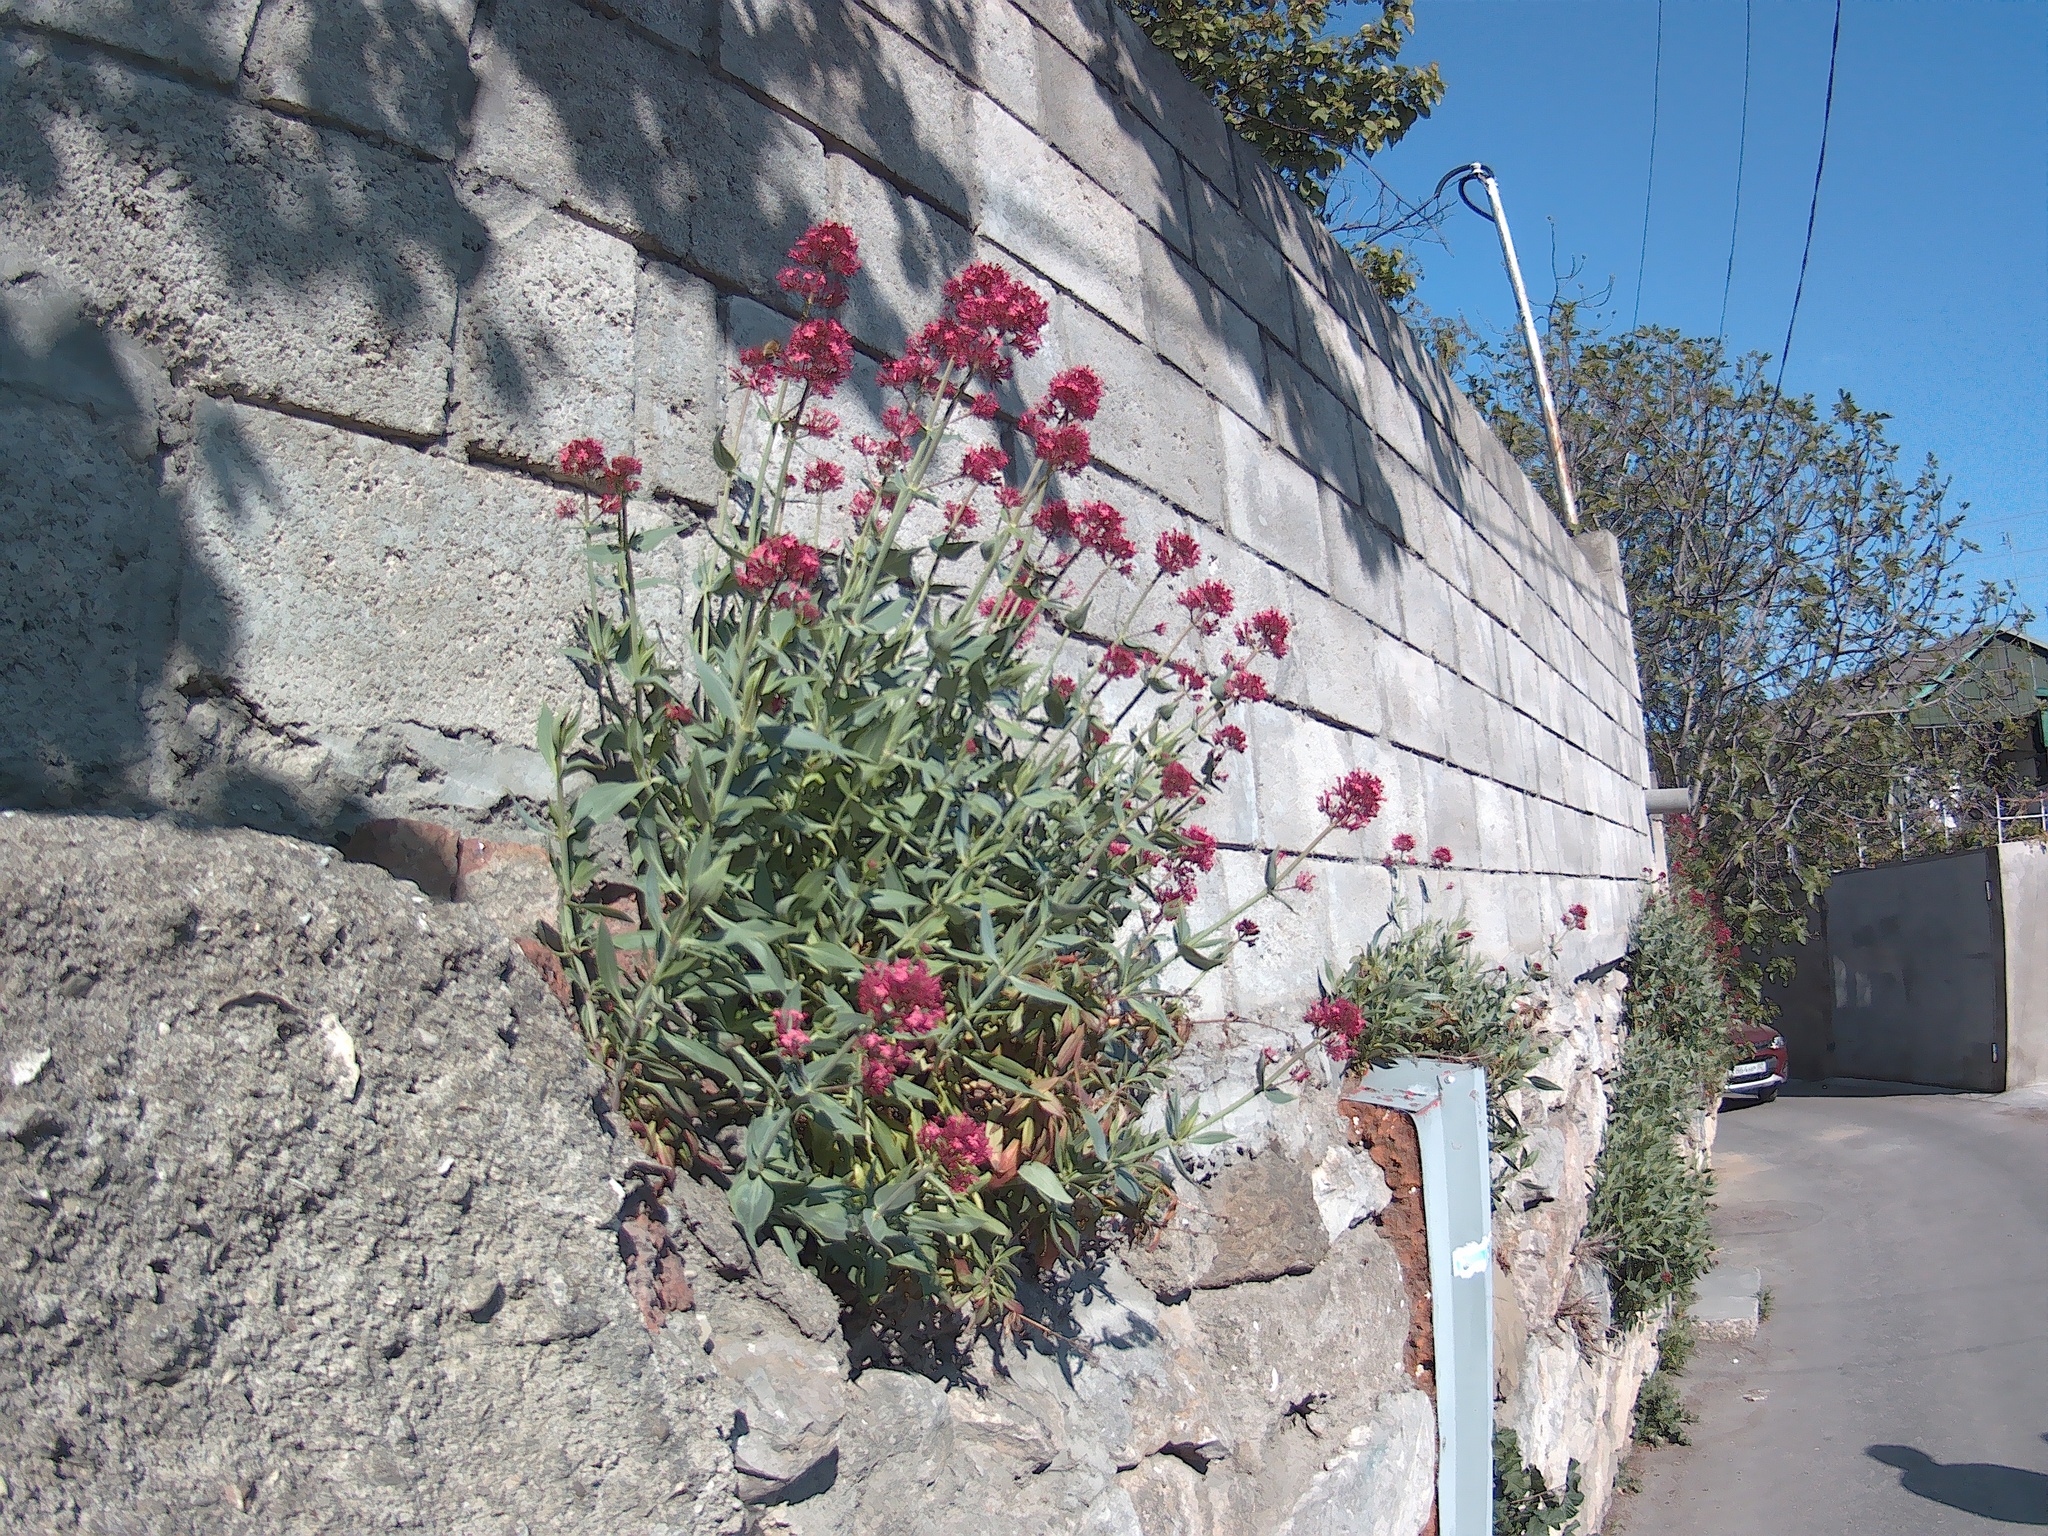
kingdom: Plantae
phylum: Tracheophyta
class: Magnoliopsida
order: Dipsacales
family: Caprifoliaceae
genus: Centranthus
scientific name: Centranthus ruber
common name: Red valerian
